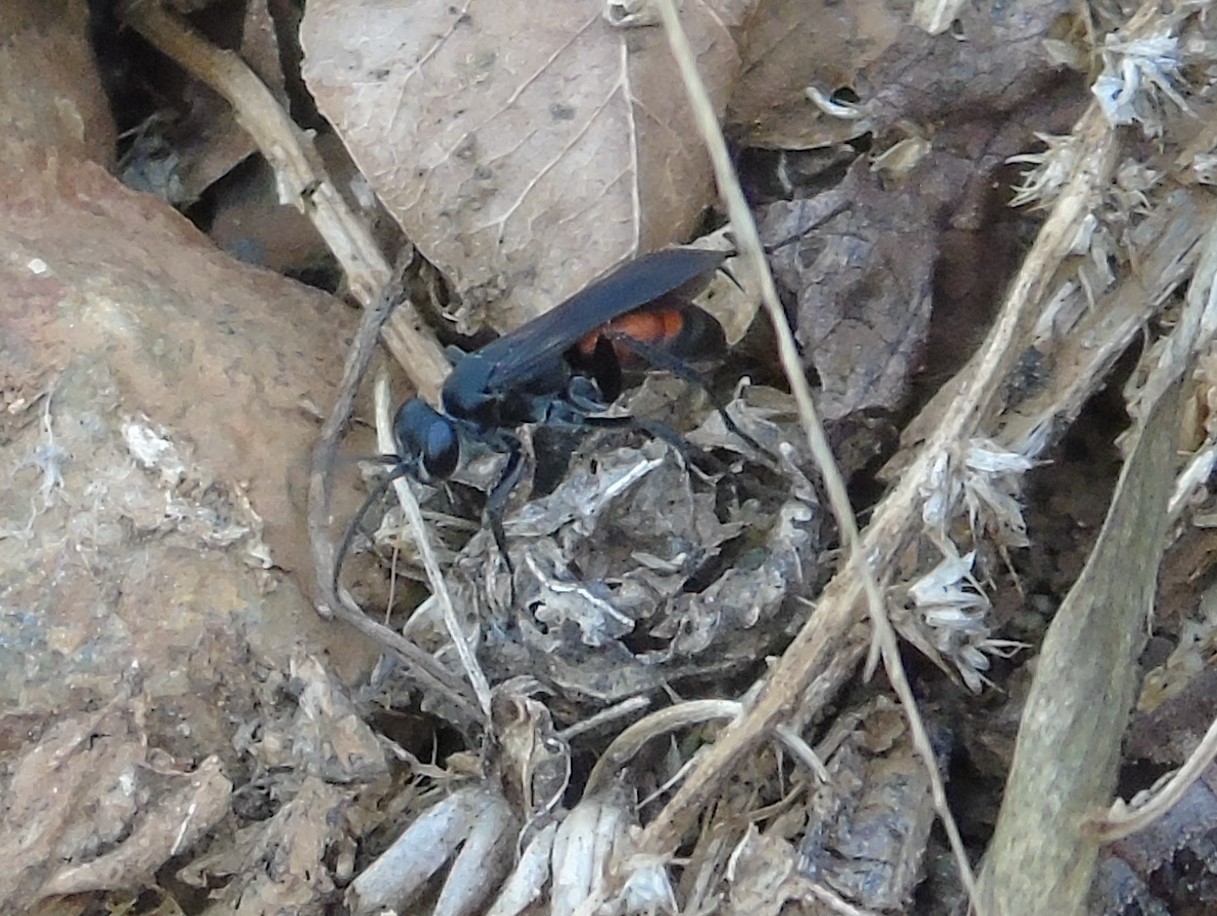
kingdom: Animalia
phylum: Arthropoda
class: Insecta
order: Hymenoptera
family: Pompilidae
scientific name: Pompilidae
